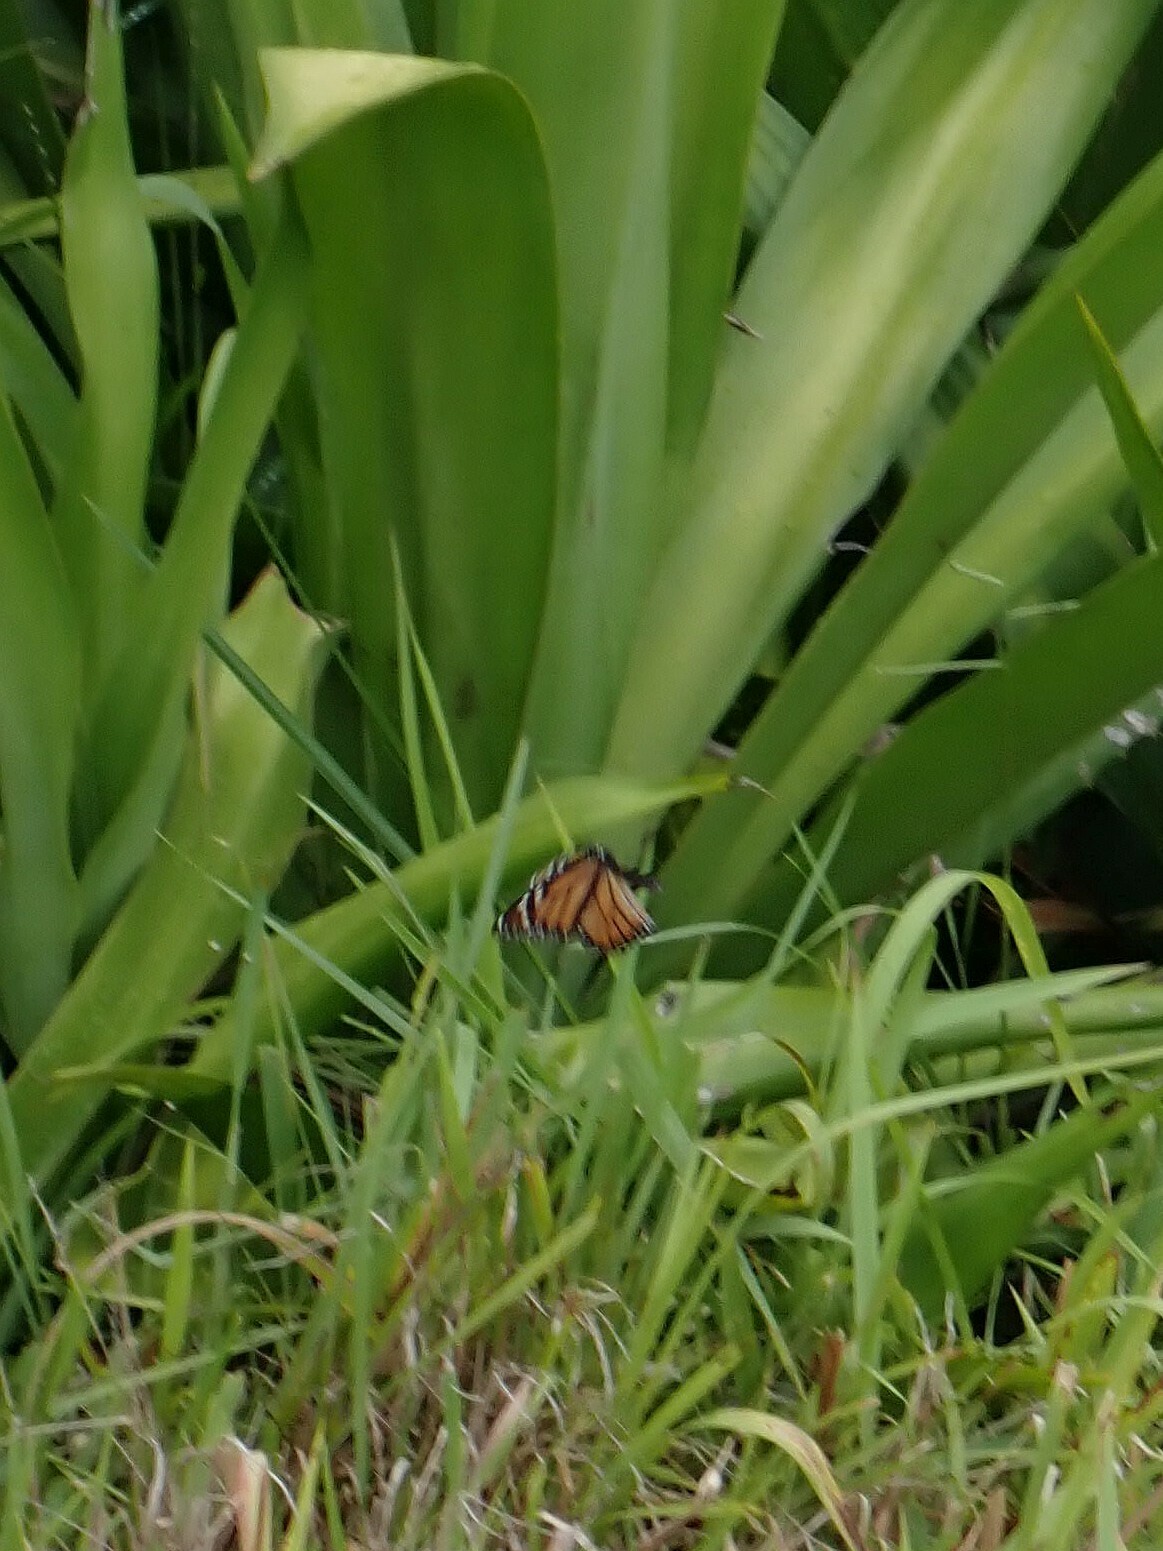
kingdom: Animalia
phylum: Arthropoda
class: Insecta
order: Lepidoptera
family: Nymphalidae
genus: Danaus
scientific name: Danaus plexippus
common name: Monarch
